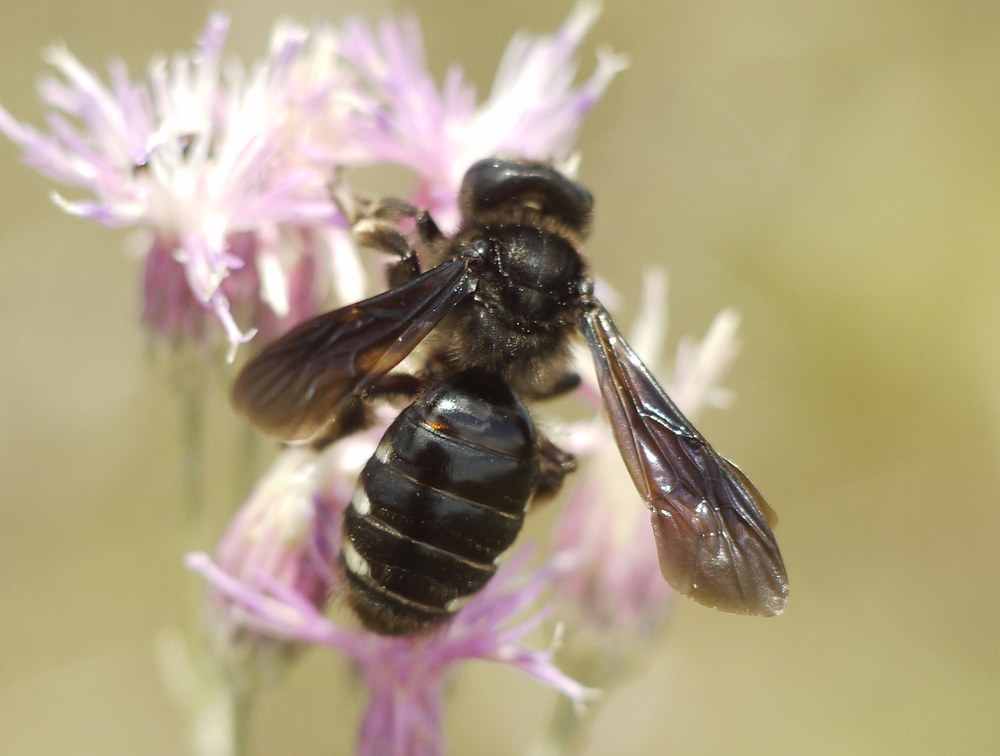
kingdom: Animalia
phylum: Arthropoda
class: Insecta
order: Hymenoptera
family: Andrenidae
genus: Andrena
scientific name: Andrena magna
